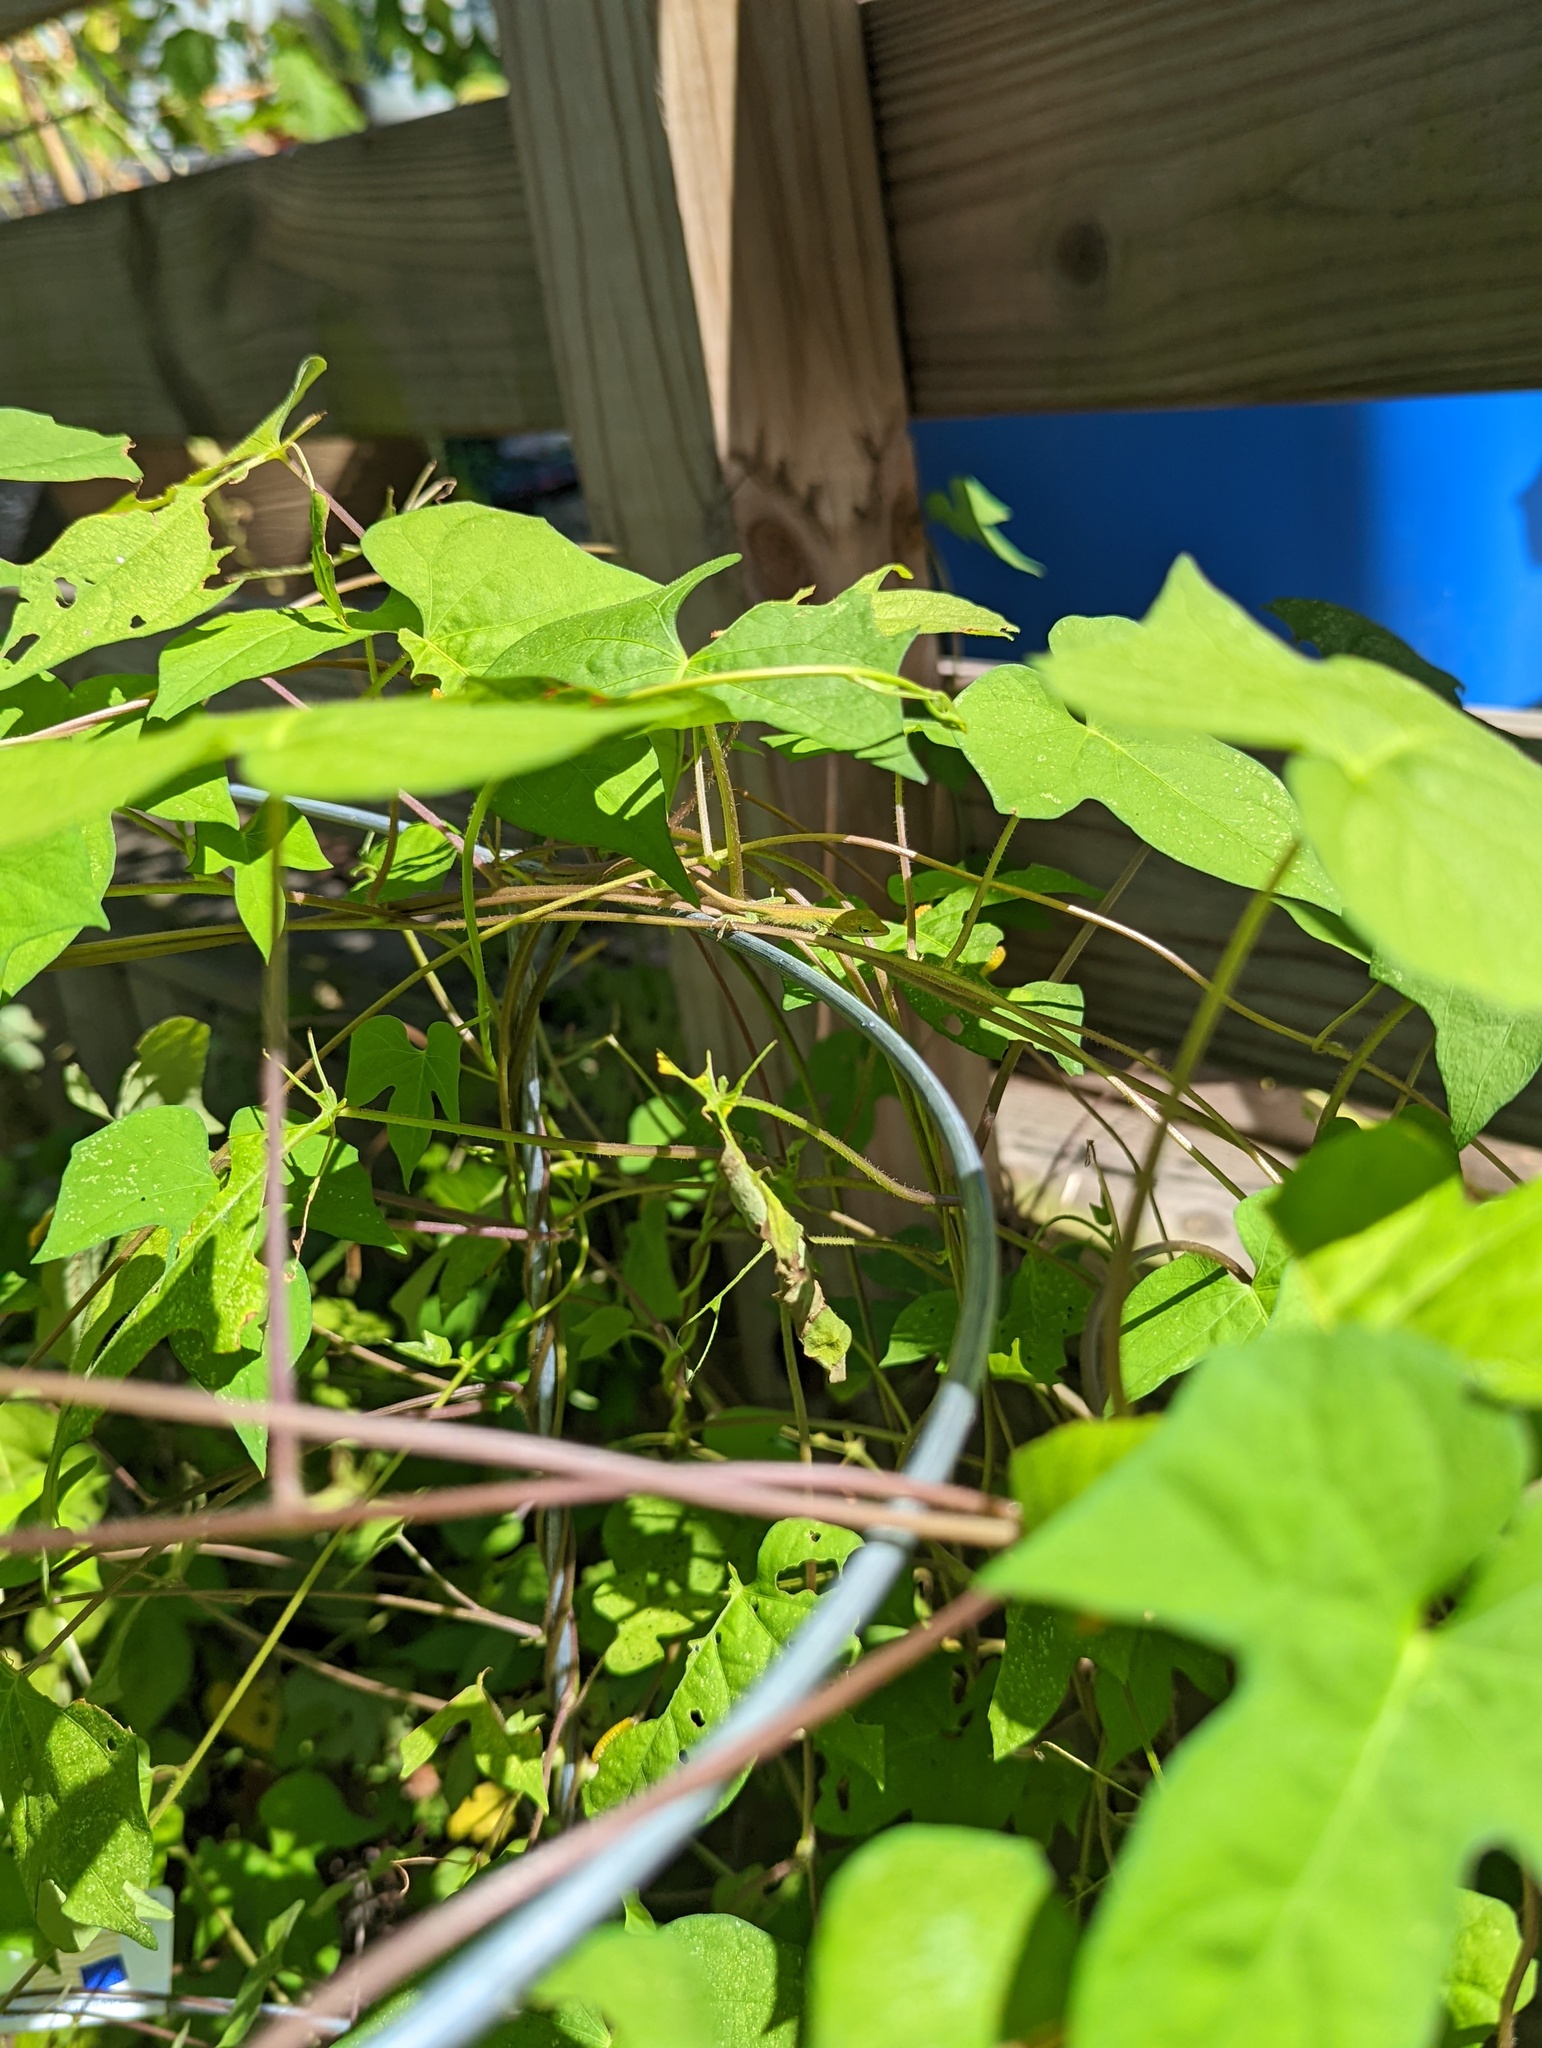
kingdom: Animalia
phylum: Chordata
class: Squamata
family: Dactyloidae
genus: Anolis
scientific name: Anolis carolinensis
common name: Green anole
